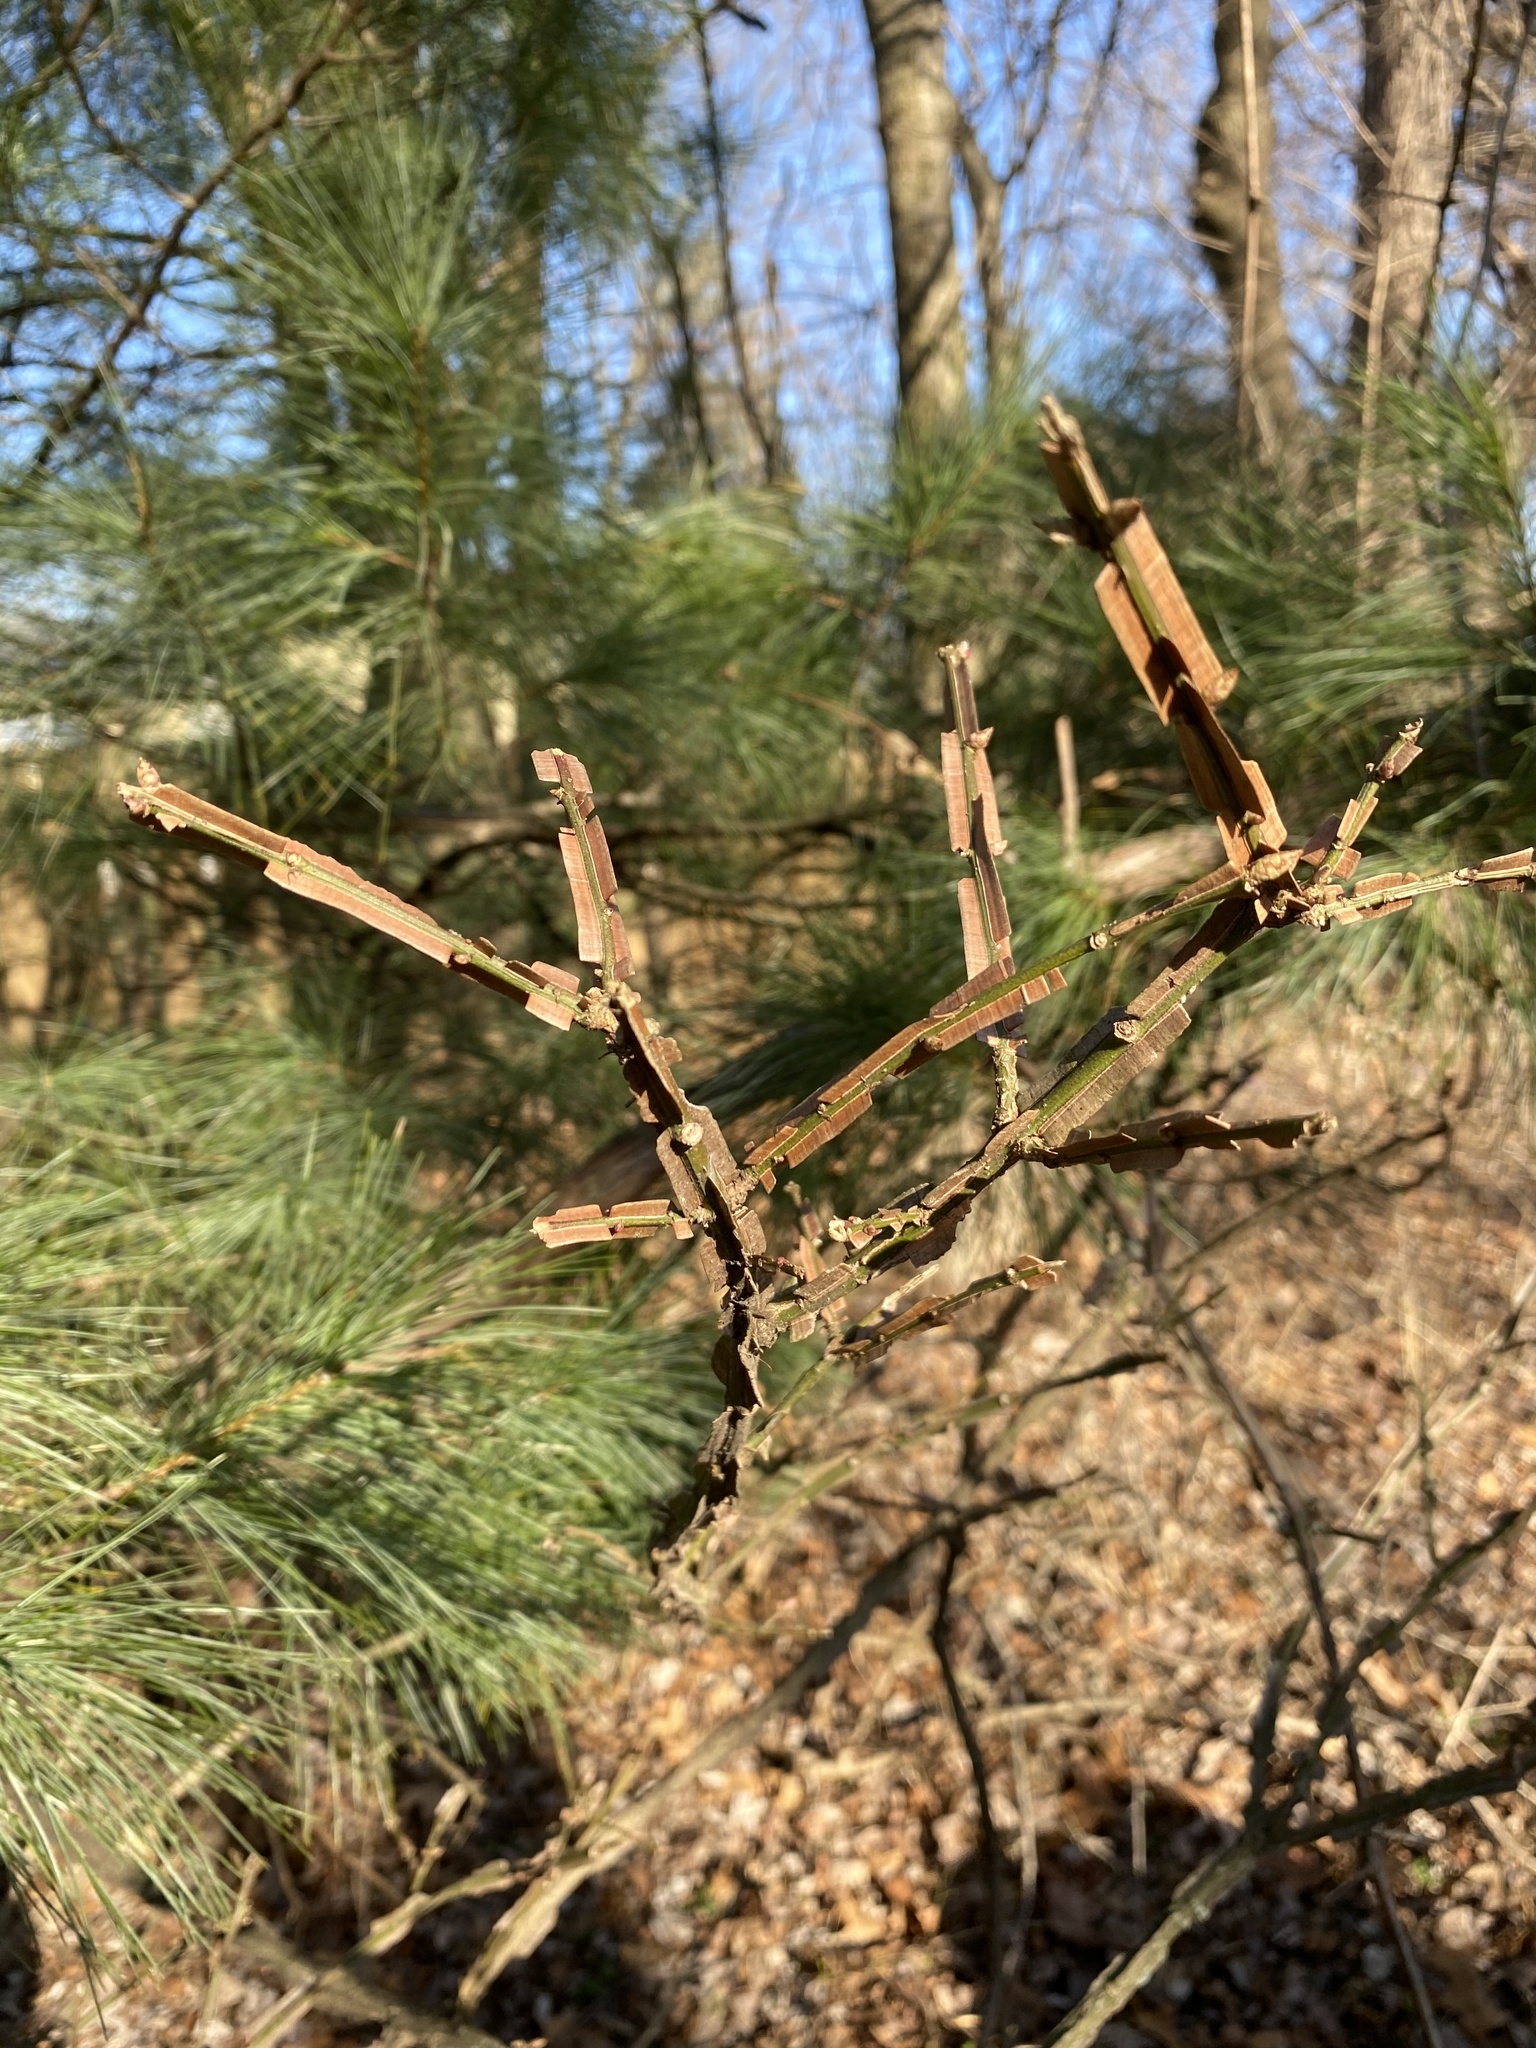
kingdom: Plantae
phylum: Tracheophyta
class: Magnoliopsida
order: Celastrales
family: Celastraceae
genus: Euonymus
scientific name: Euonymus alatus
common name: Winged euonymus
